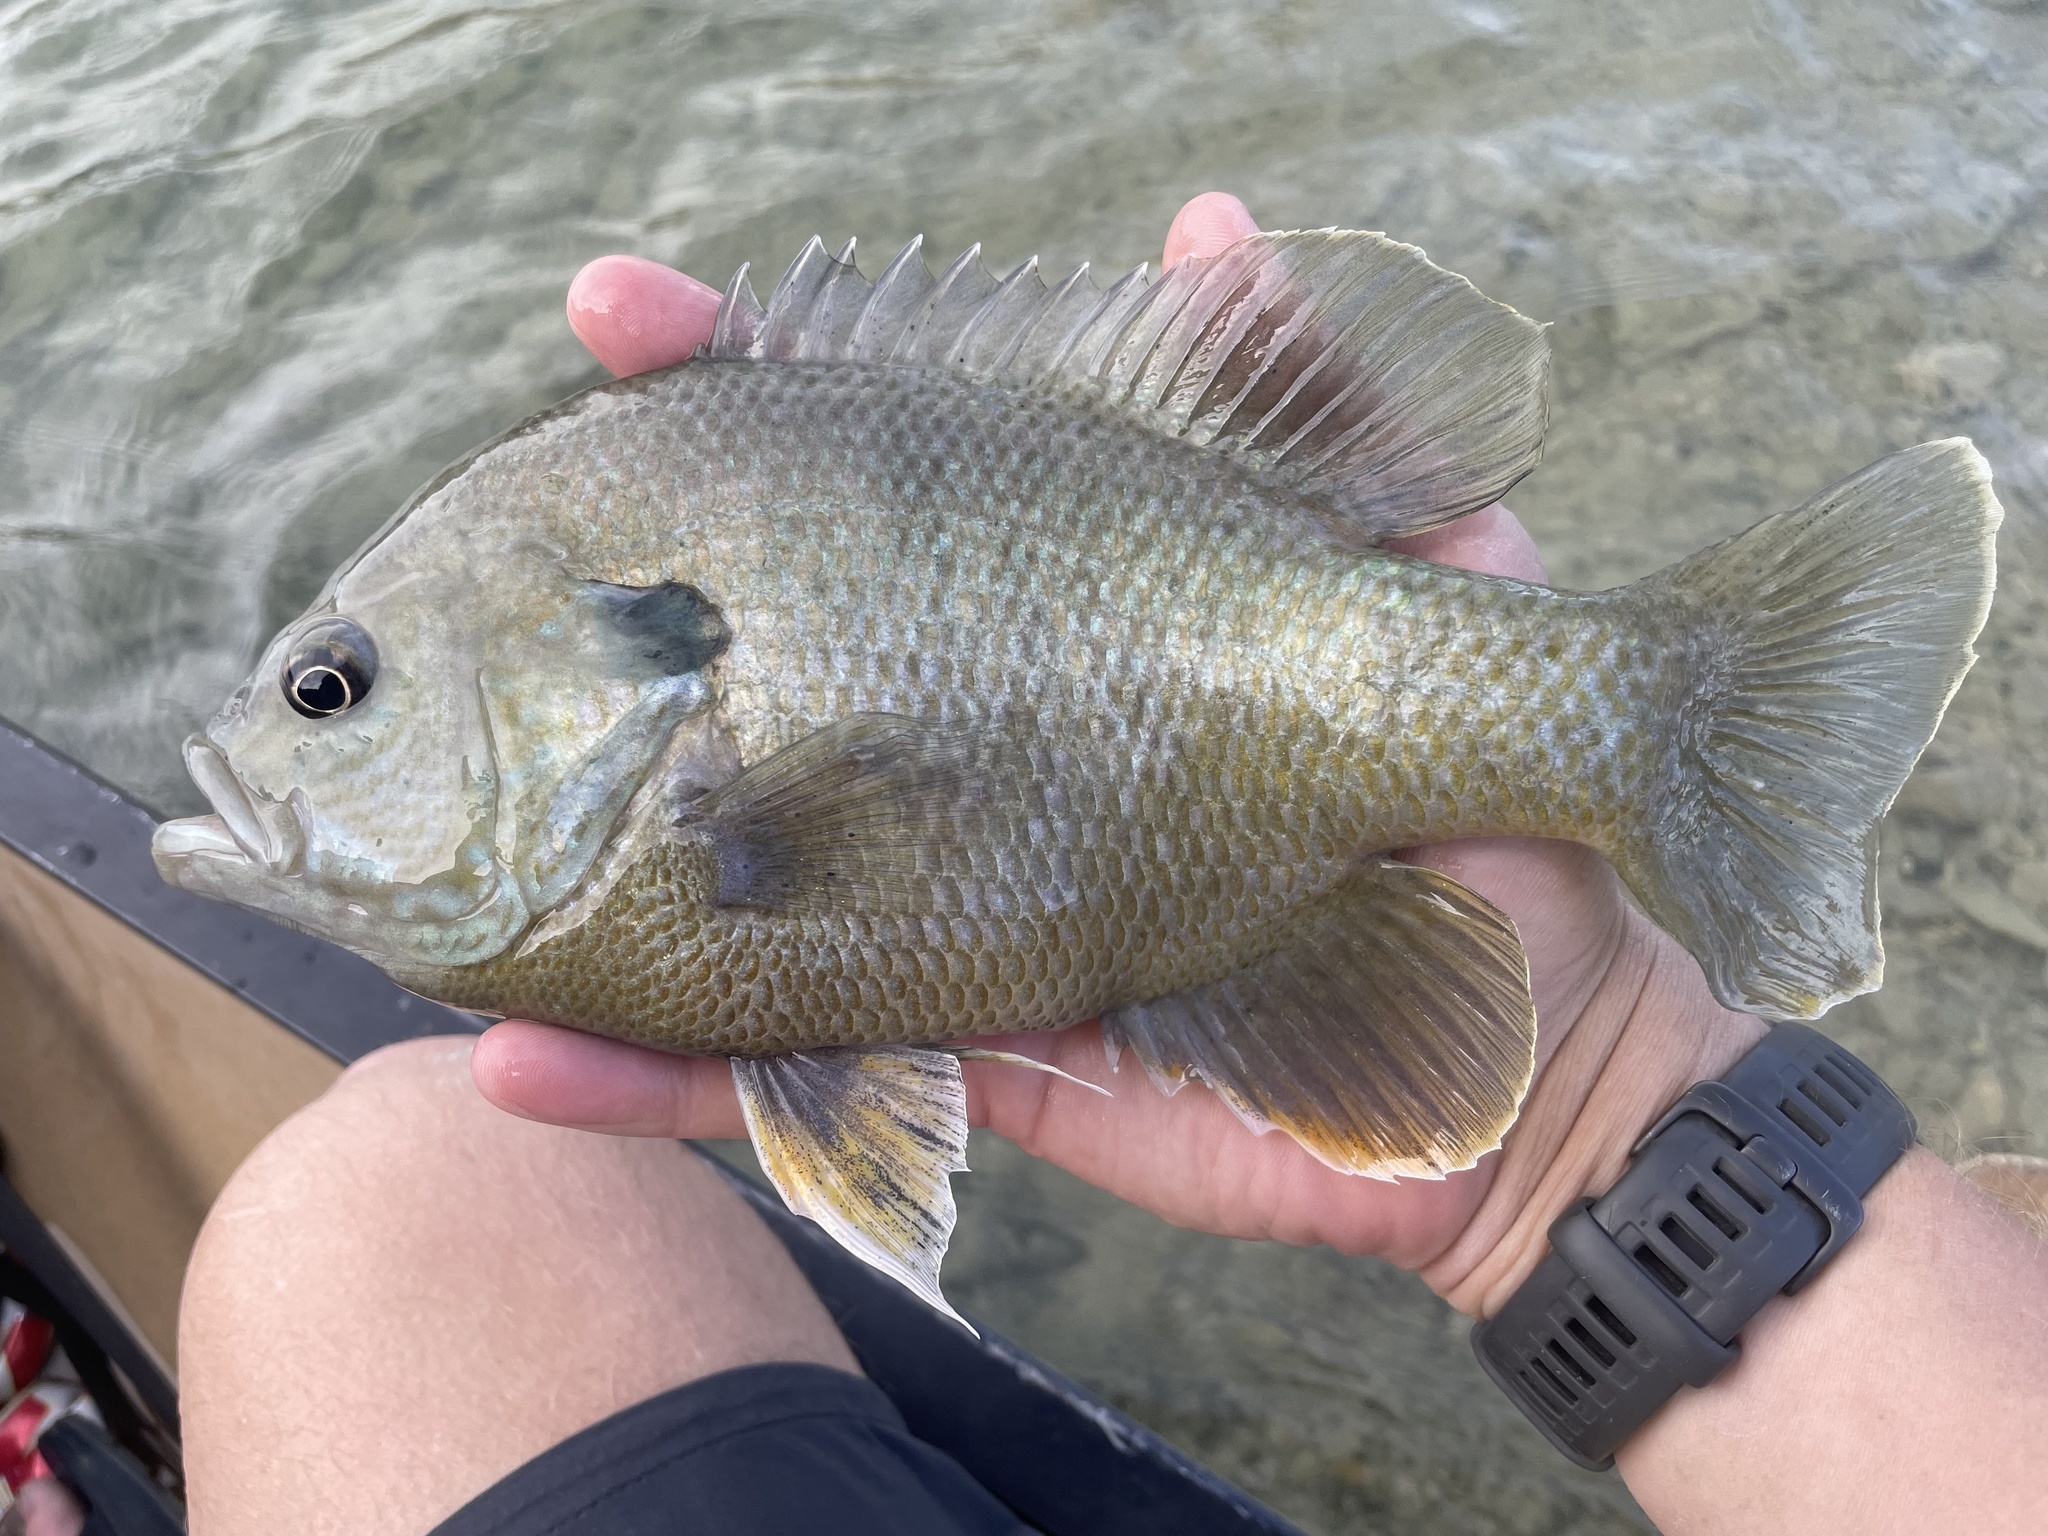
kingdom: Animalia
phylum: Chordata
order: Perciformes
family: Centrarchidae
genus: Lepomis
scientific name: Lepomis
